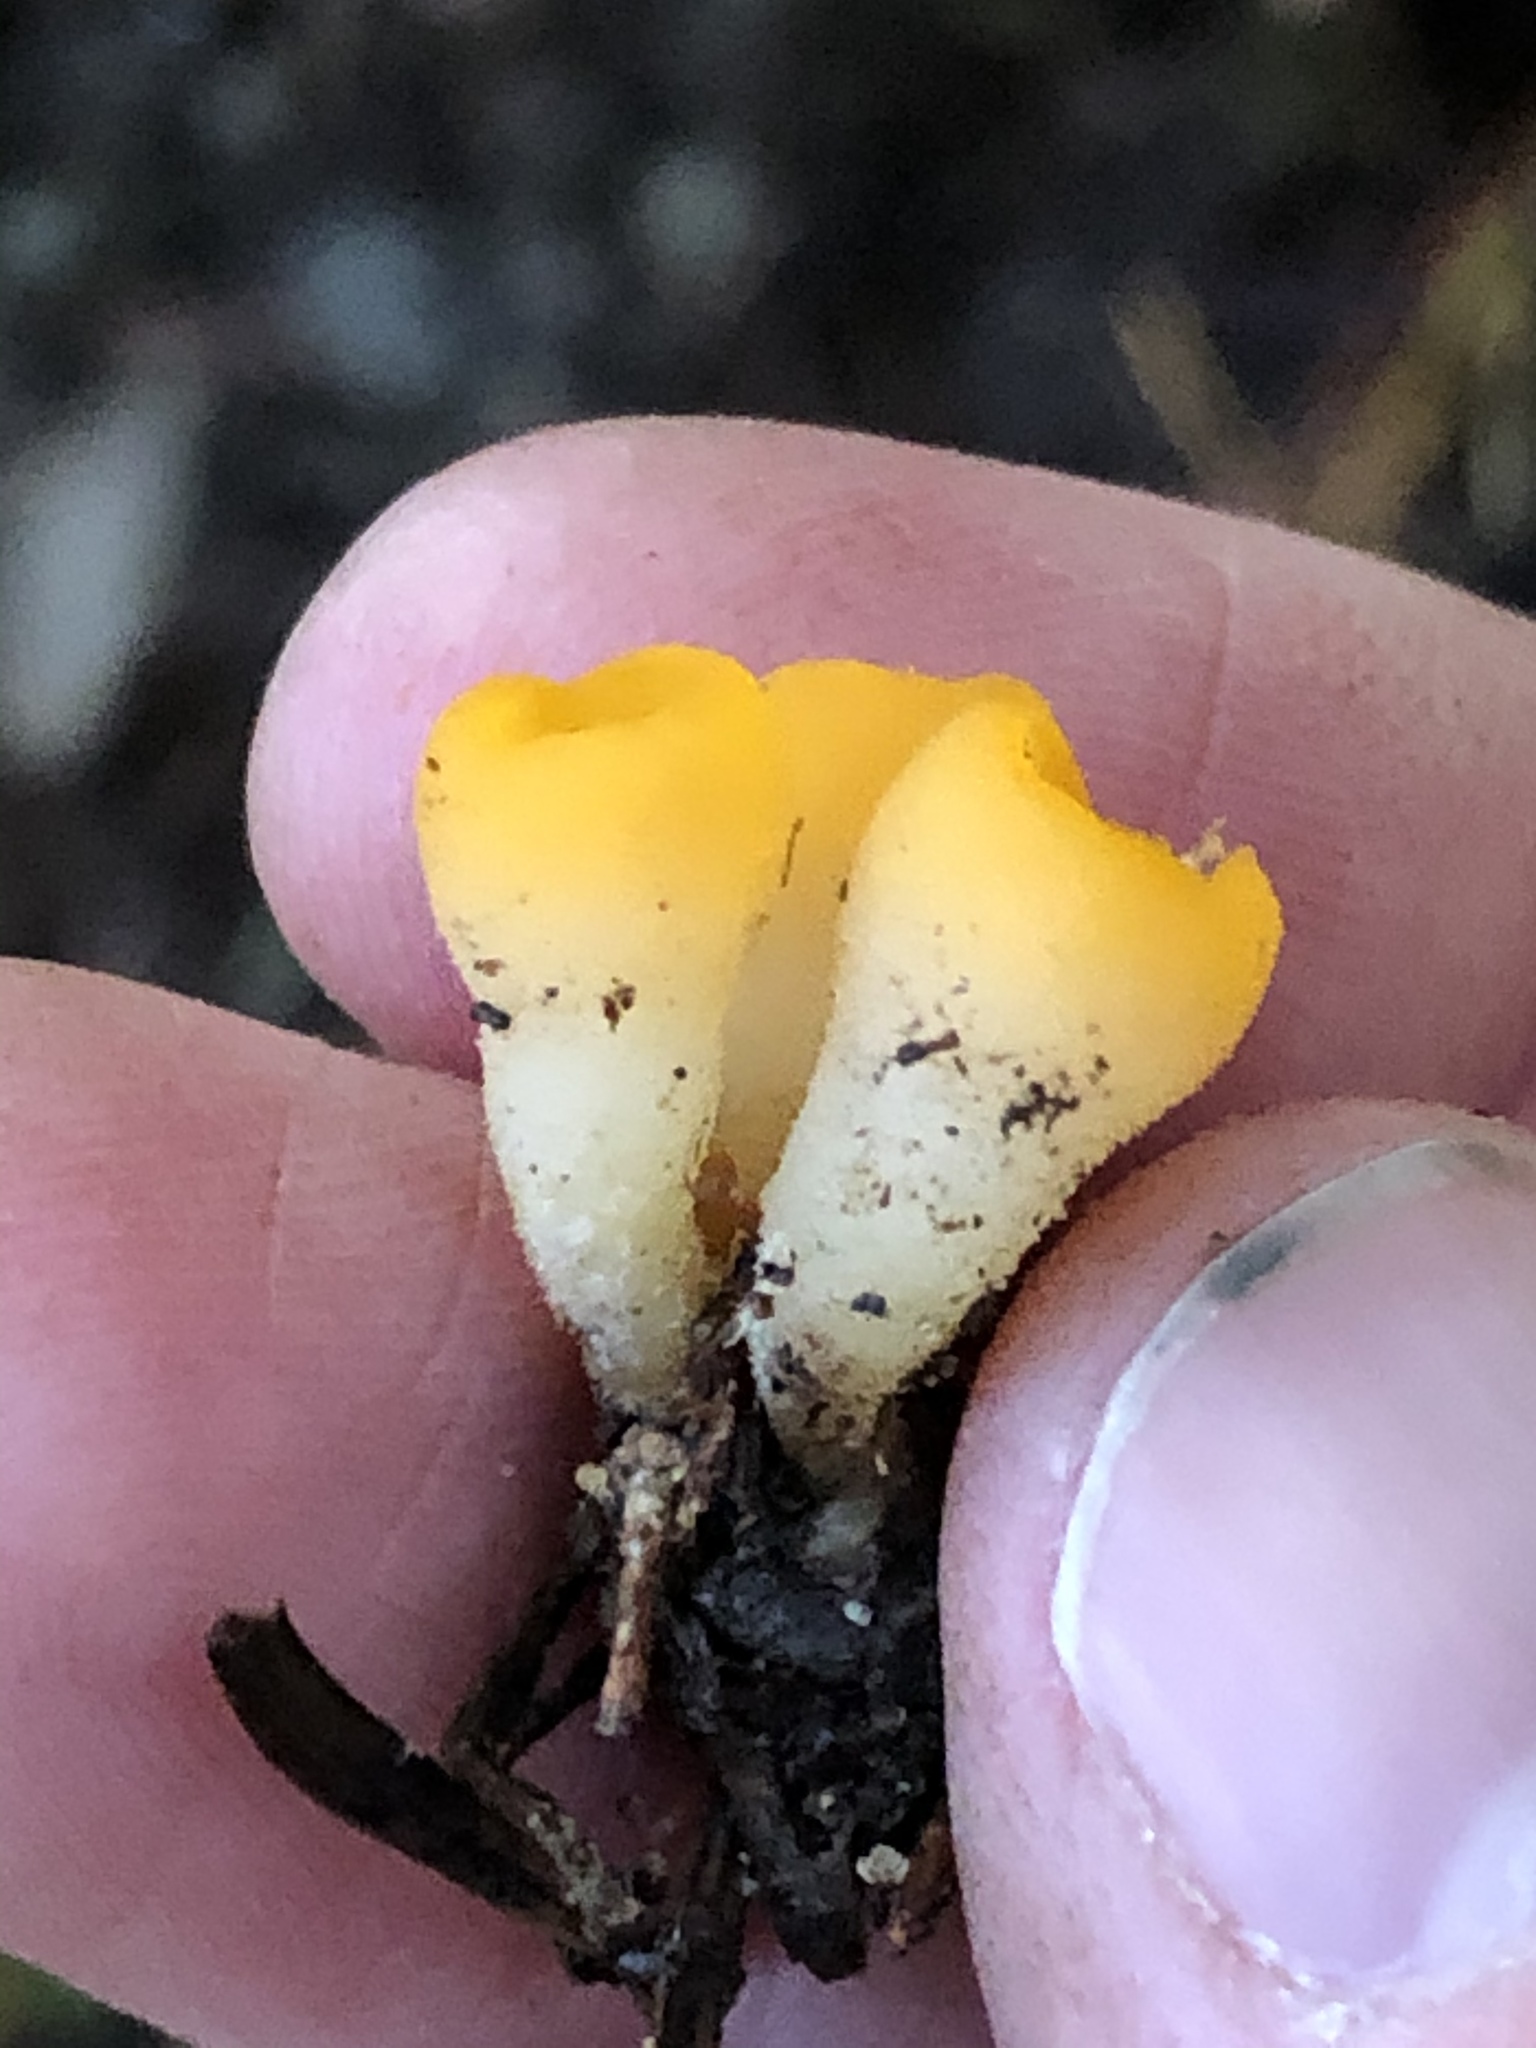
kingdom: Fungi
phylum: Ascomycota
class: Pezizomycetes
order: Pezizales
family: Pyronemataceae
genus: Sowerbyella
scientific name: Sowerbyella rhenana
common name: Stalked orange peel fungus
